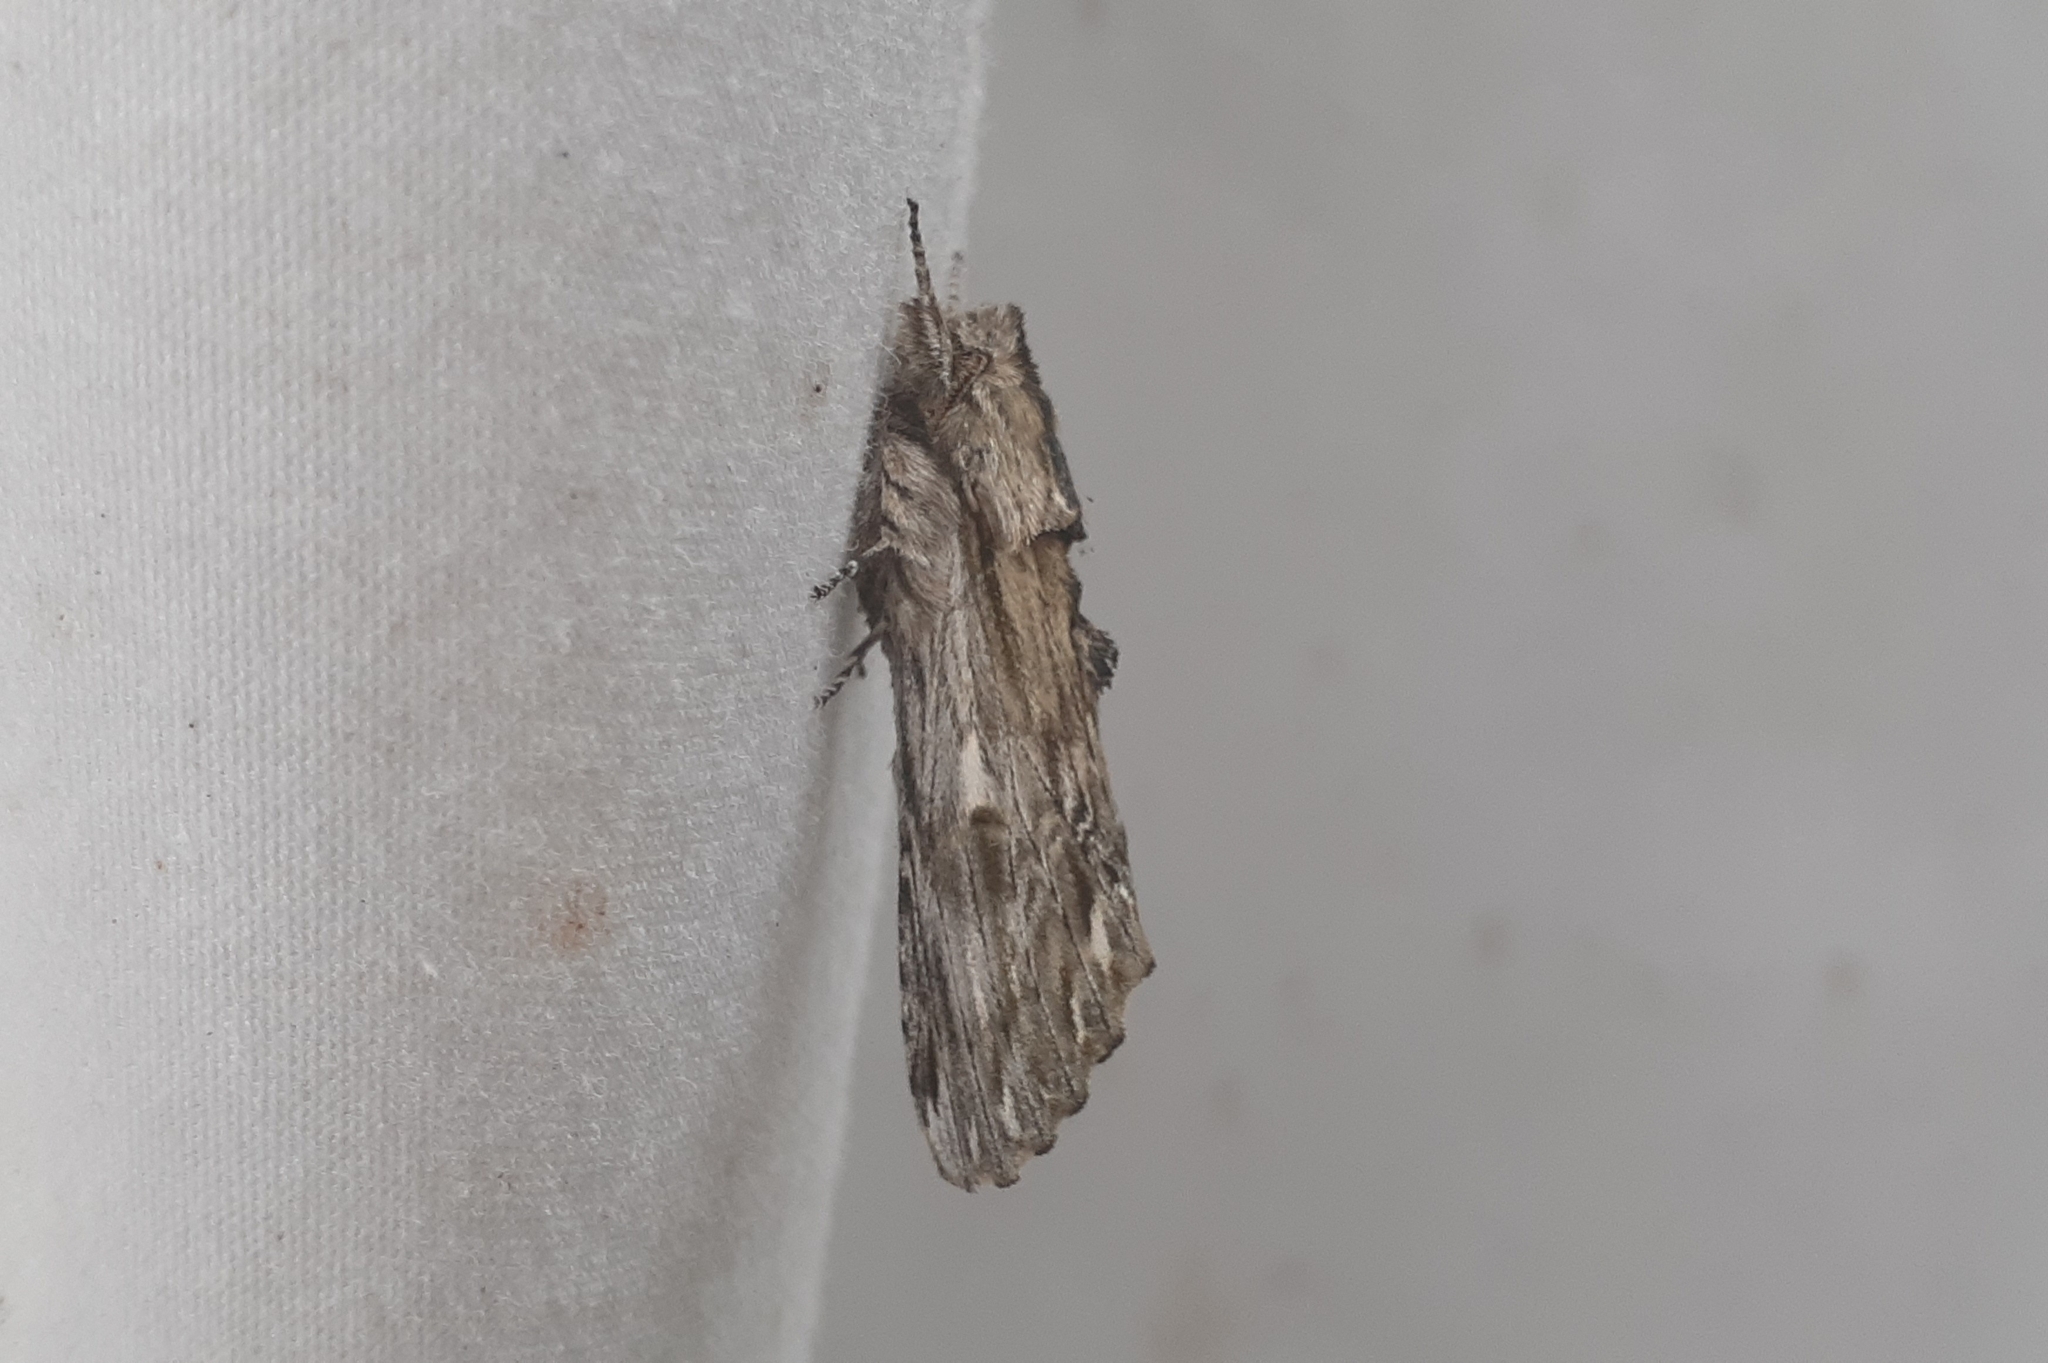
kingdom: Animalia
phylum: Arthropoda
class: Insecta
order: Lepidoptera
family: Notodontidae
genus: Oligocentria
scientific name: Oligocentria Ianassa lignicolor
